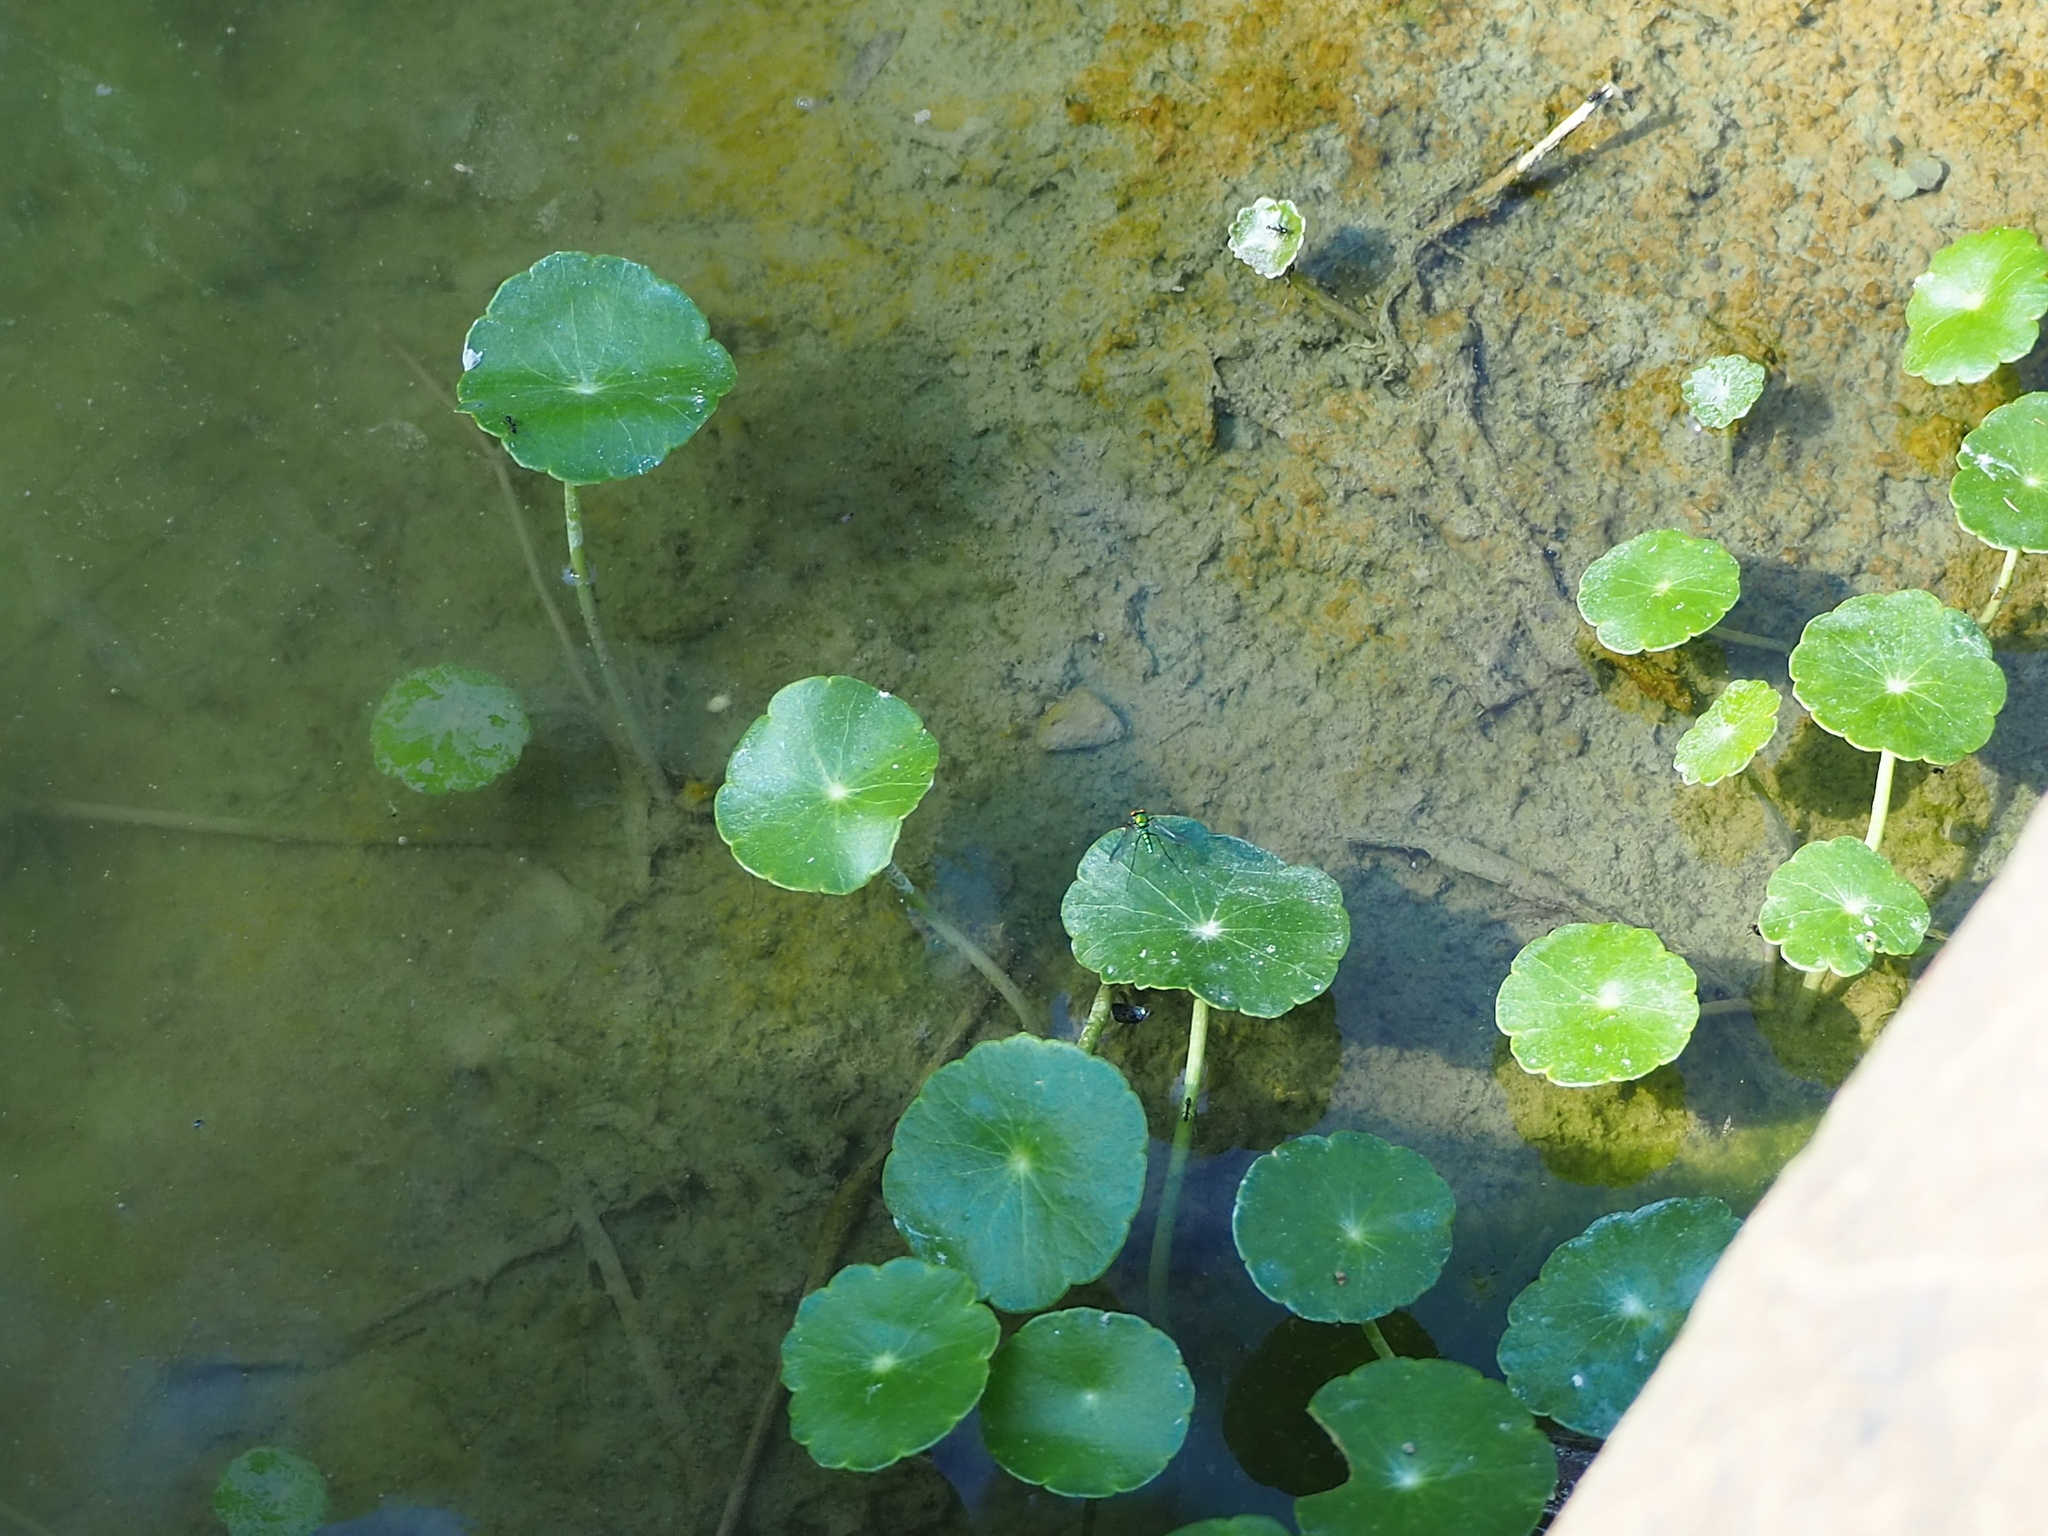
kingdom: Plantae
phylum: Tracheophyta
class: Magnoliopsida
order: Apiales
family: Araliaceae
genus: Hydrocotyle
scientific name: Hydrocotyle verticillata
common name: Whorled marshpennywort
